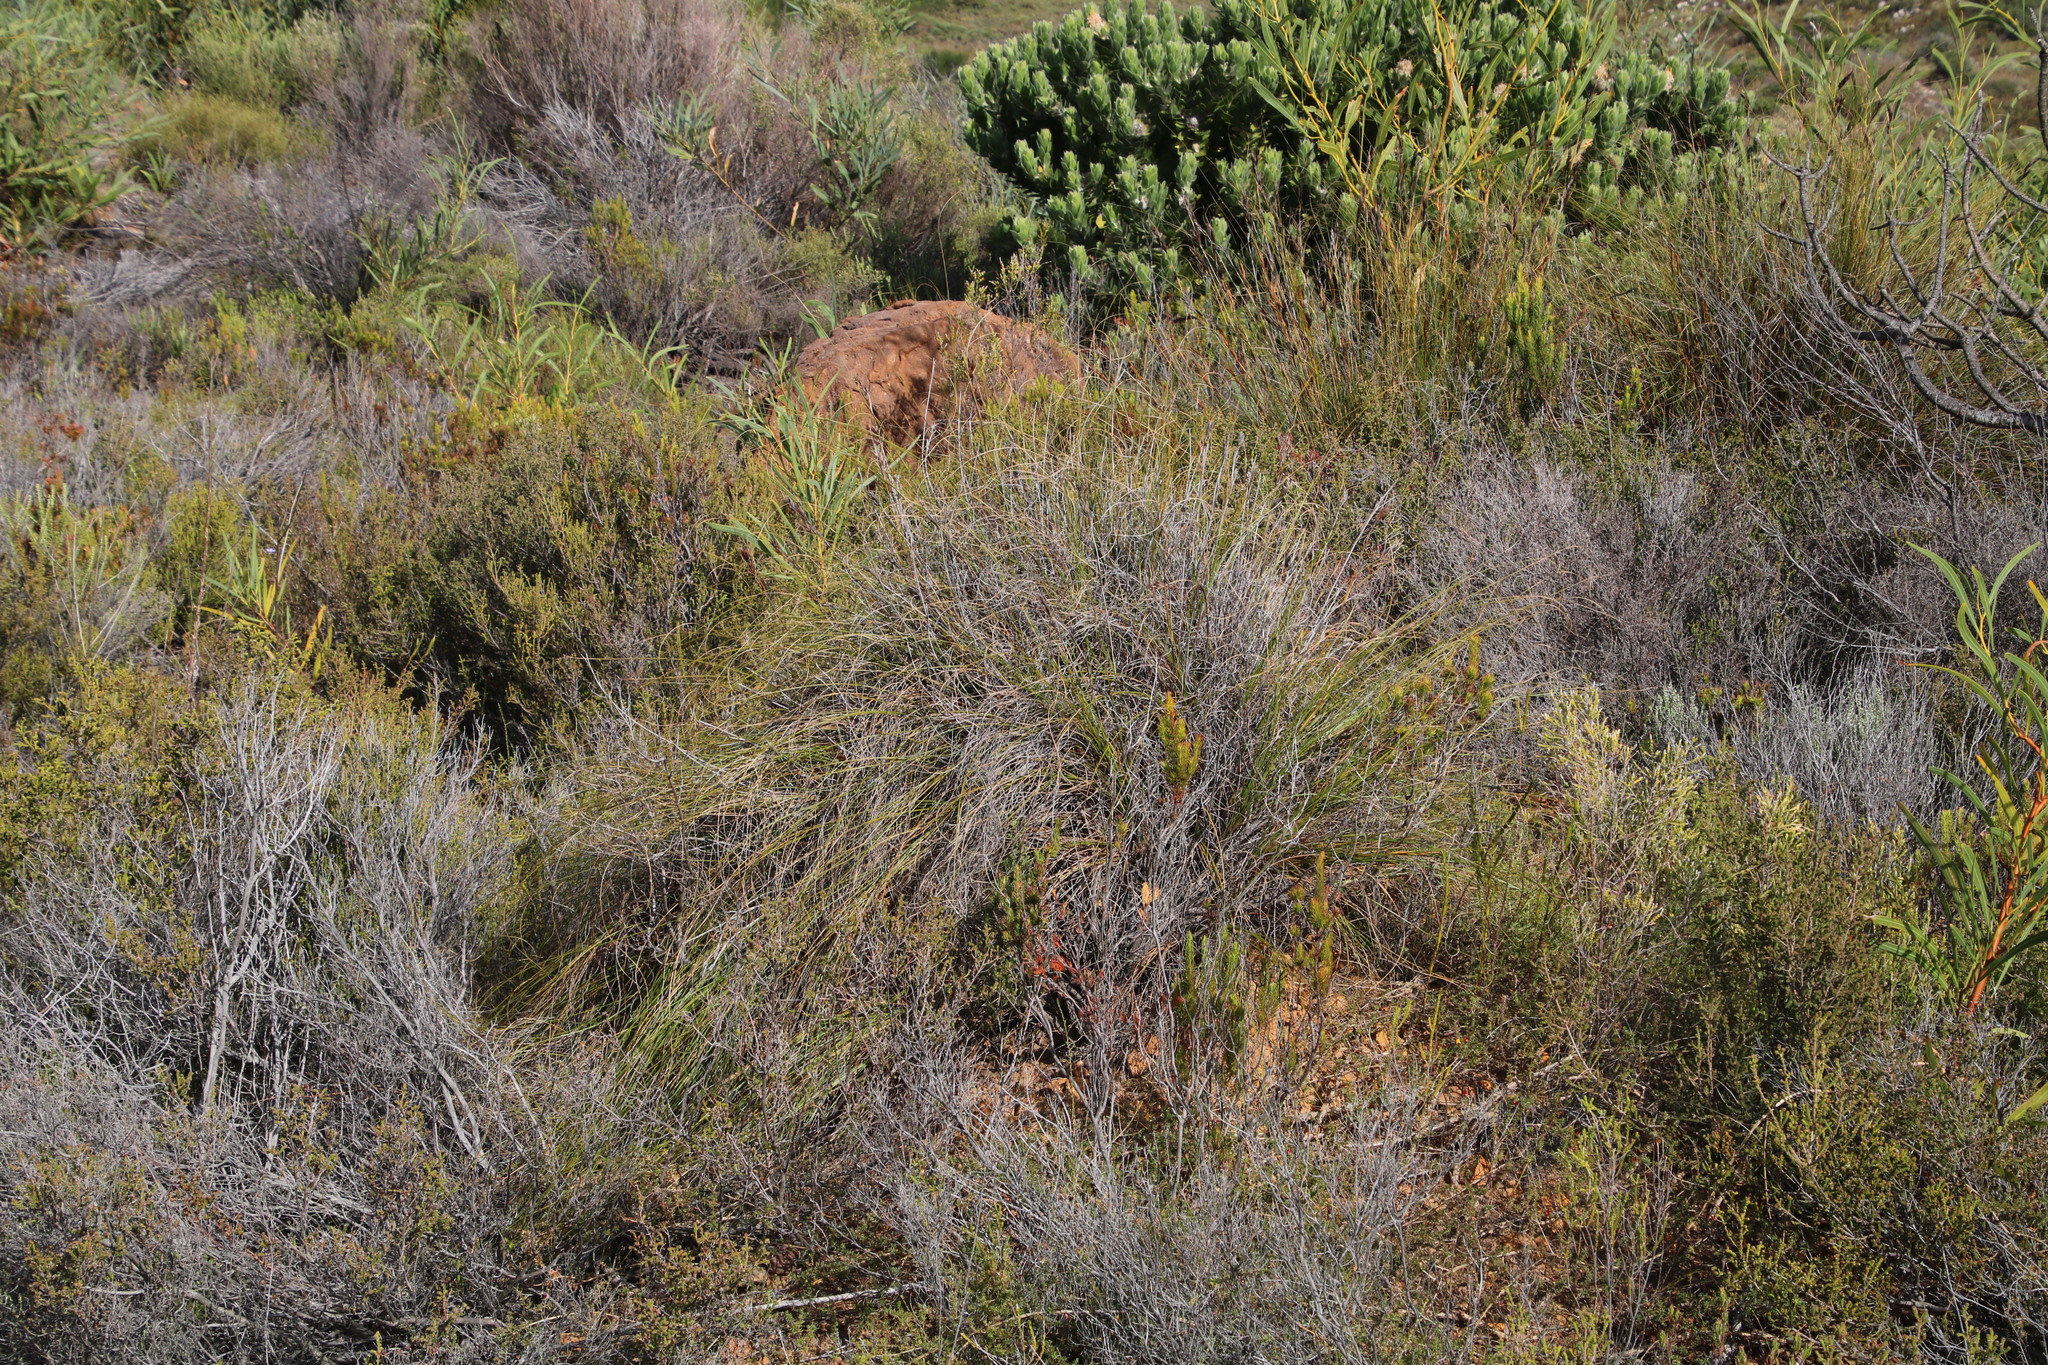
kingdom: Plantae
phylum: Tracheophyta
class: Liliopsida
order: Poales
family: Cyperaceae
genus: Tetraria
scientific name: Tetraria ustulata
